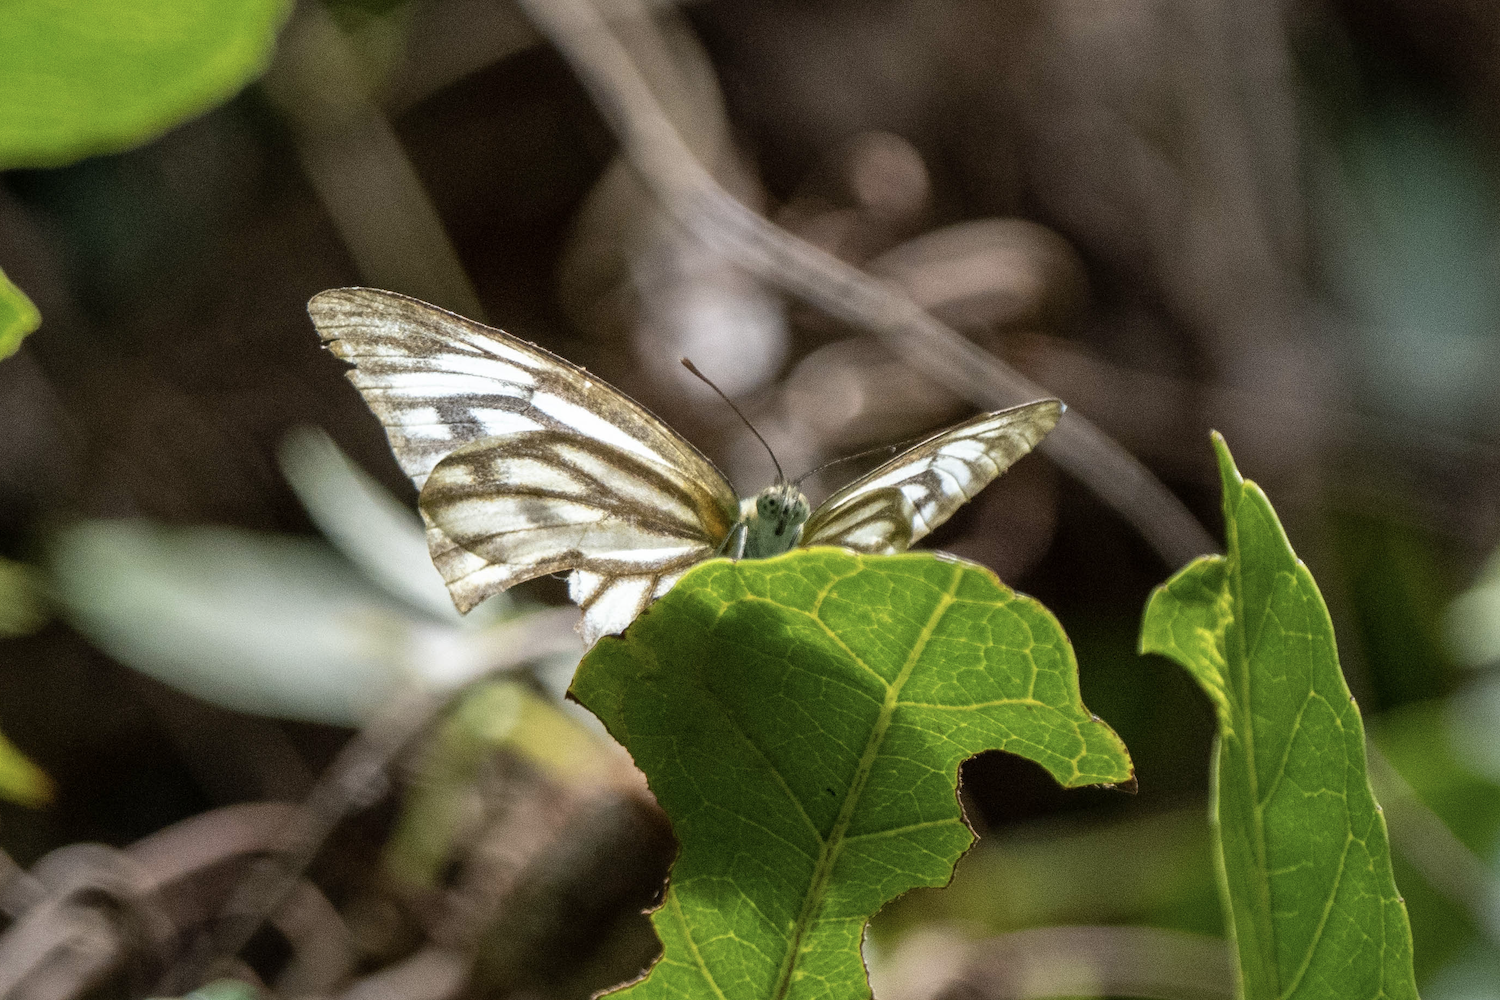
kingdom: Animalia
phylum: Arthropoda
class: Insecta
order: Lepidoptera
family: Pieridae
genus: Cepora
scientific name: Cepora nerissa
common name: Common gull
